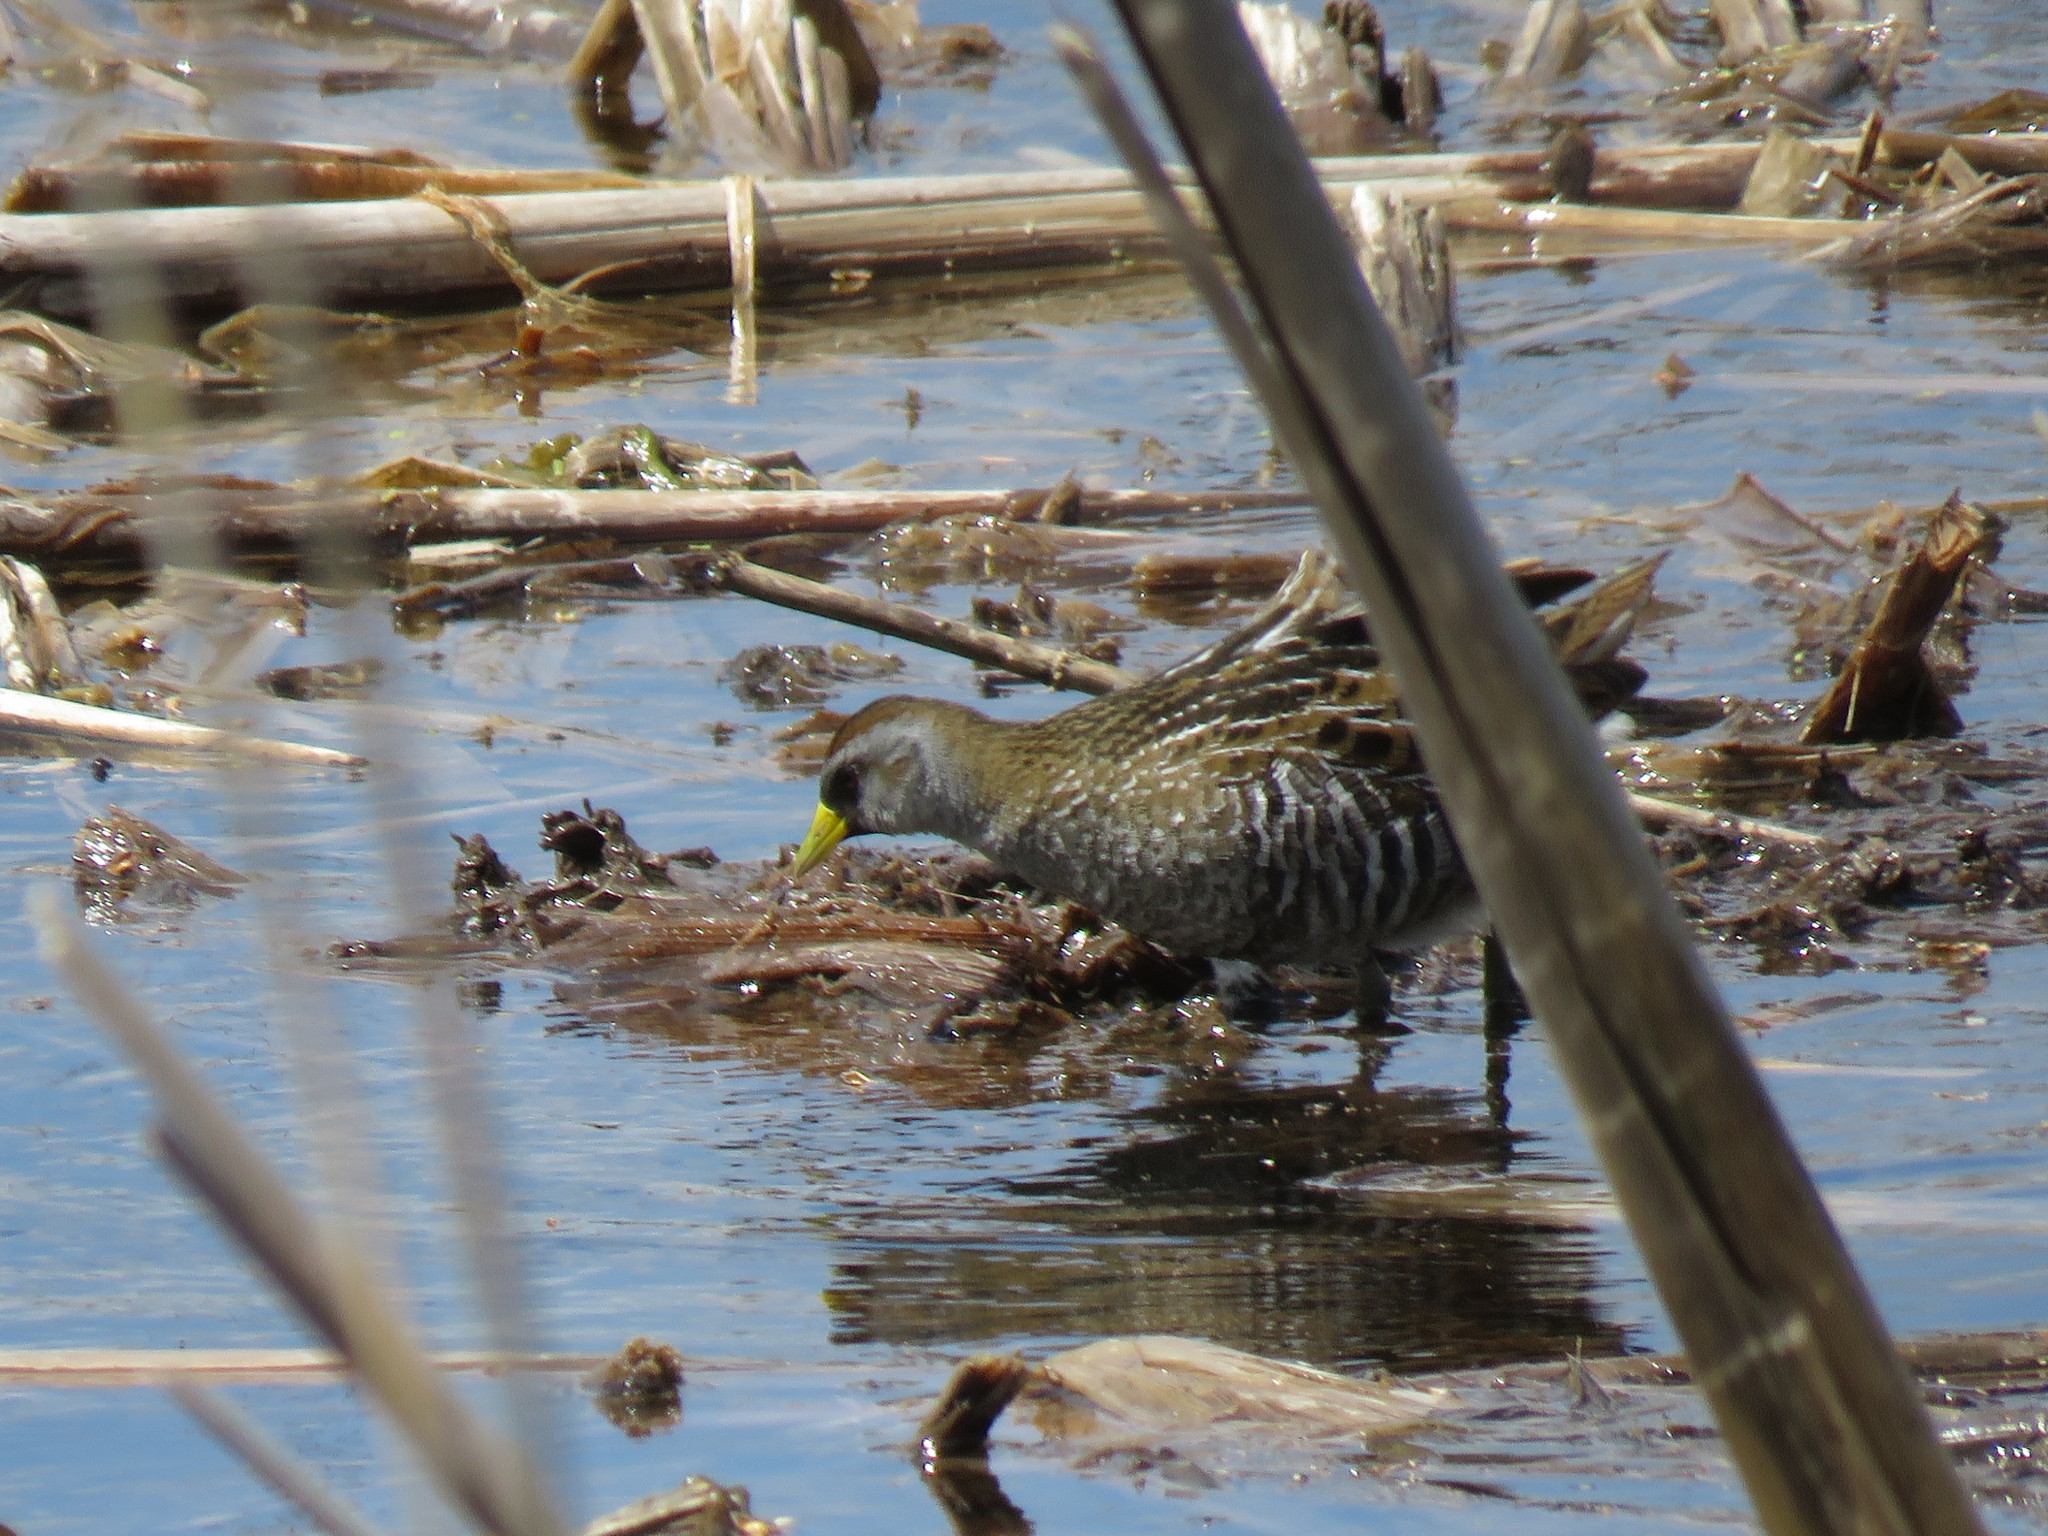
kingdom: Animalia
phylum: Chordata
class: Aves
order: Gruiformes
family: Rallidae
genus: Porzana
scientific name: Porzana carolina
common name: Sora
